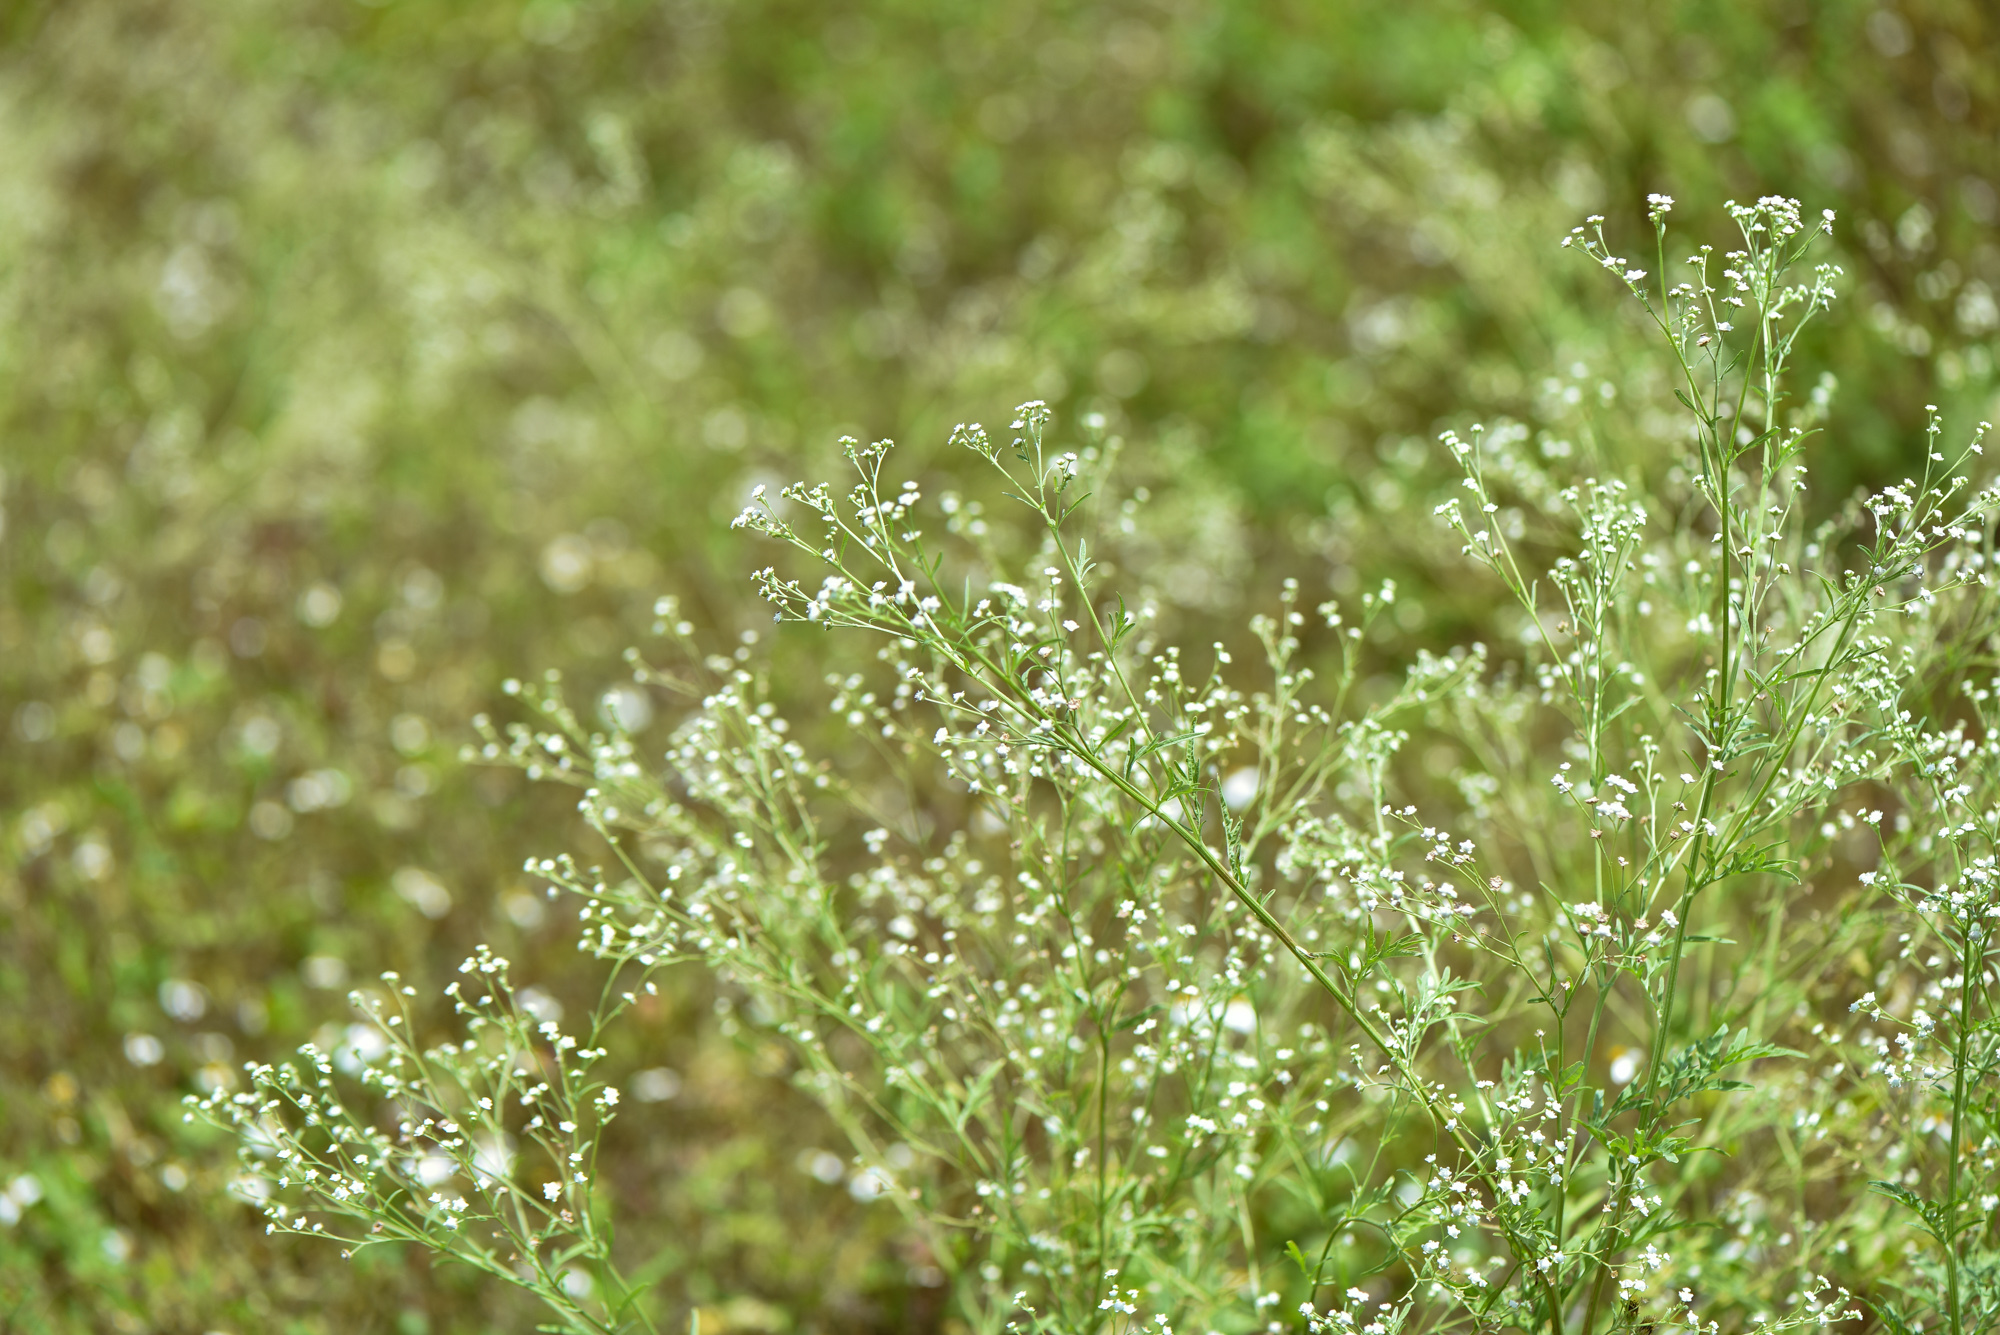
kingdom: Plantae
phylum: Tracheophyta
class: Magnoliopsida
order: Asterales
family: Asteraceae
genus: Parthenium
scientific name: Parthenium hysterophorus
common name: Santa maria feverfew
